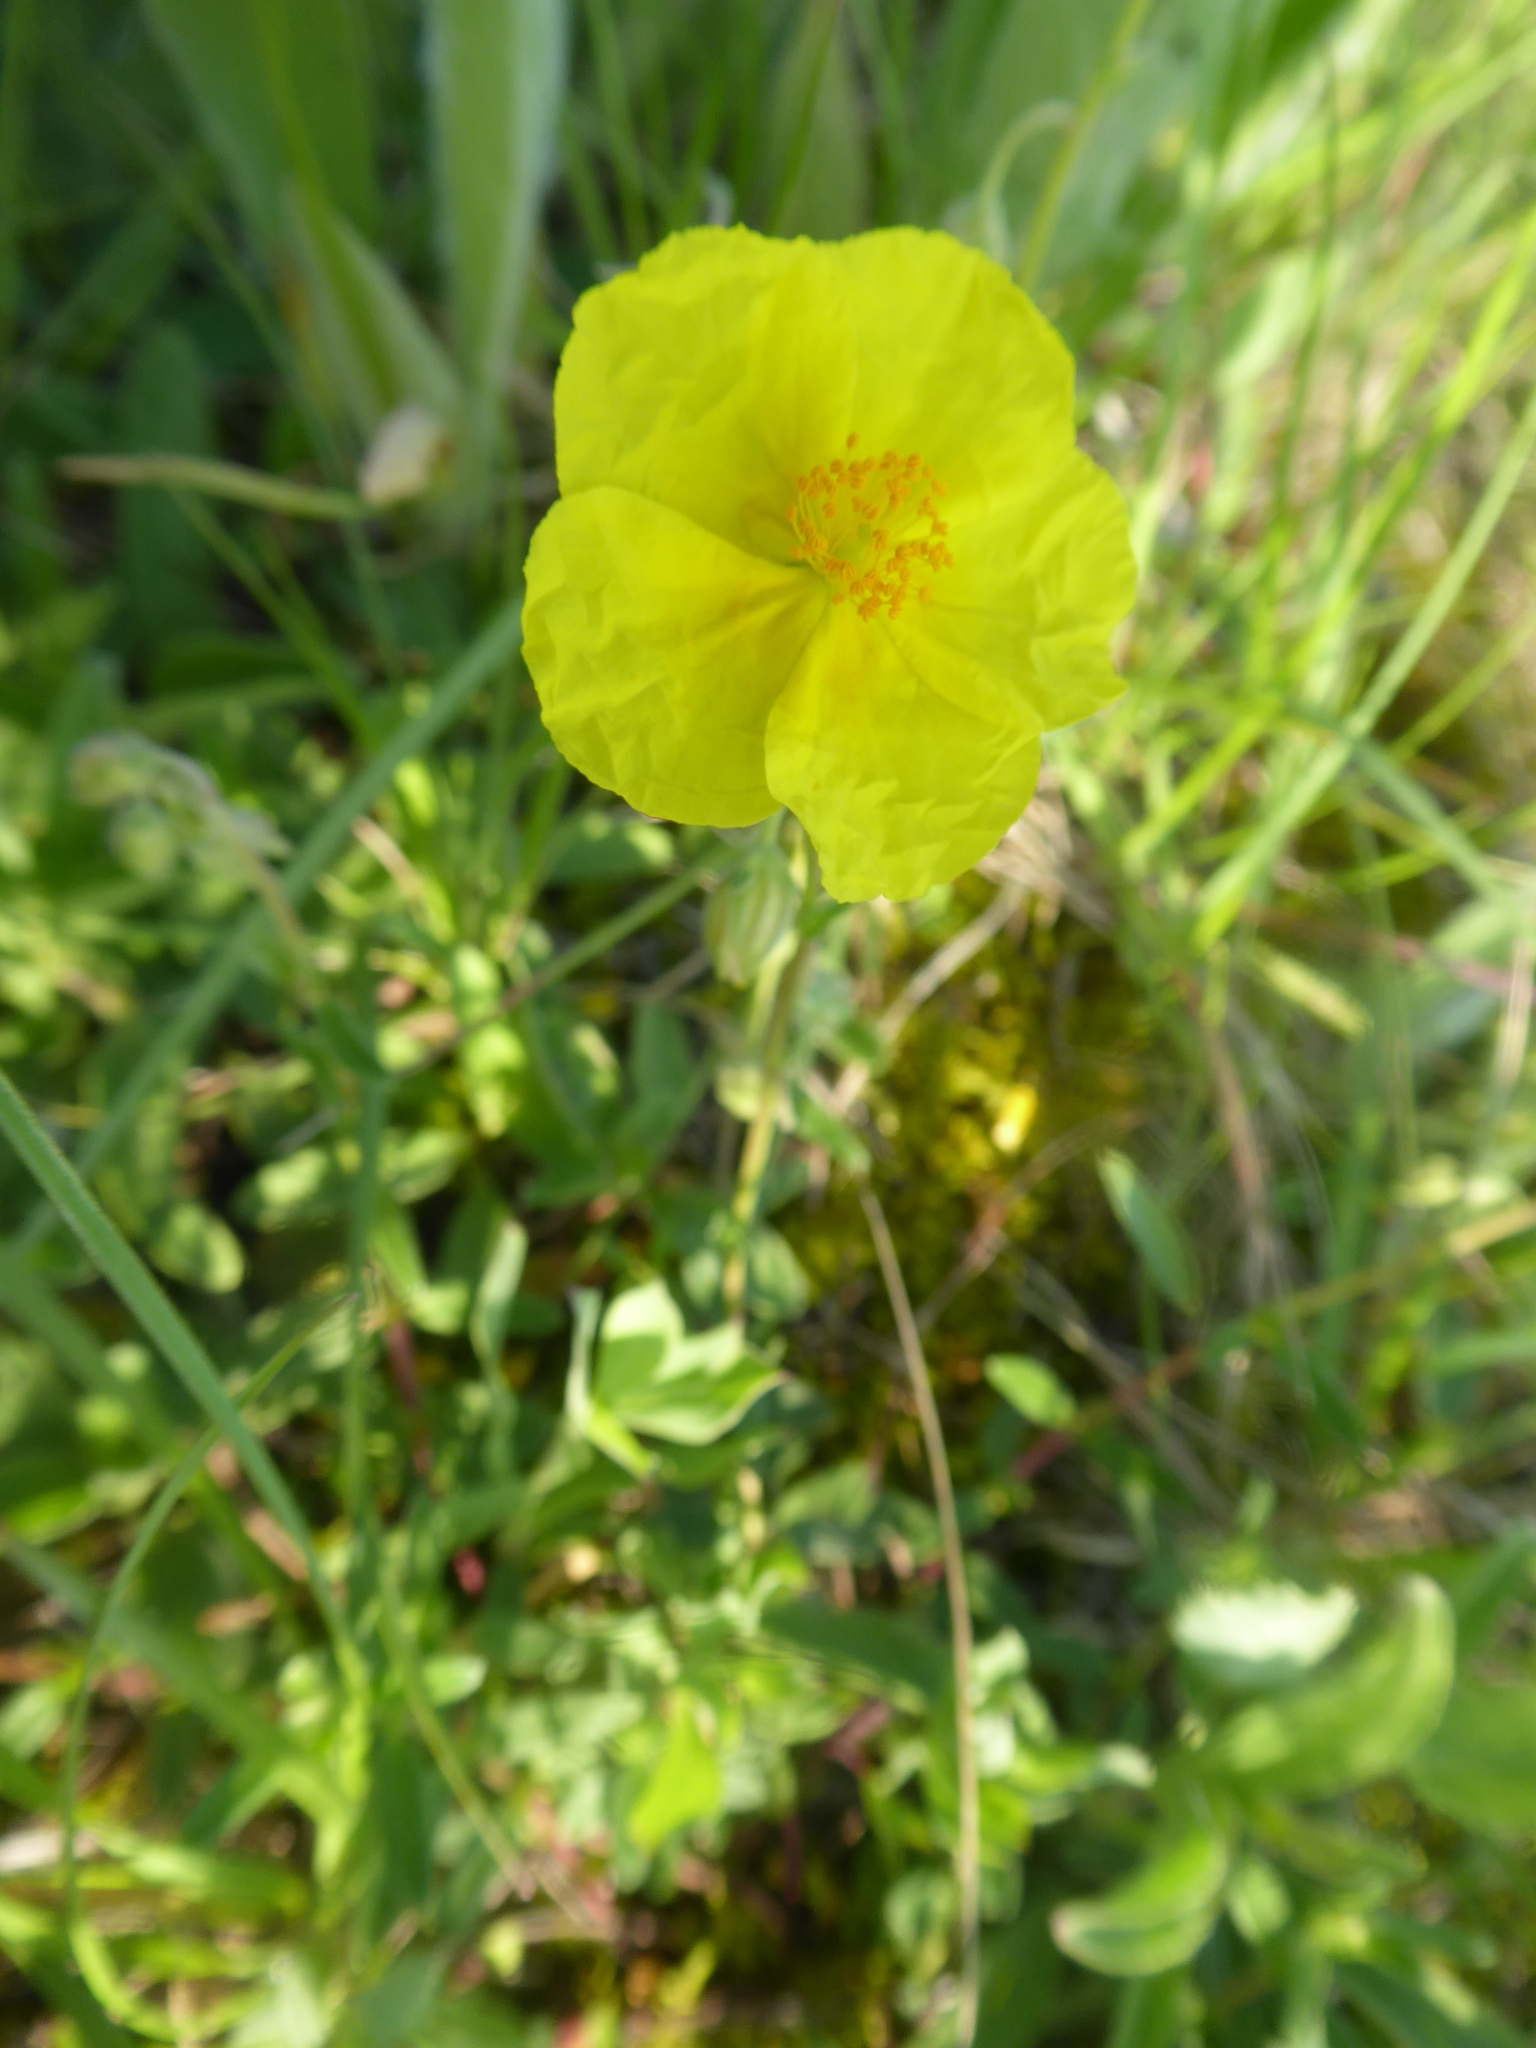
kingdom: Plantae
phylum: Tracheophyta
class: Magnoliopsida
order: Malvales
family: Cistaceae
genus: Helianthemum
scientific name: Helianthemum nummularium
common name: Common rock-rose
